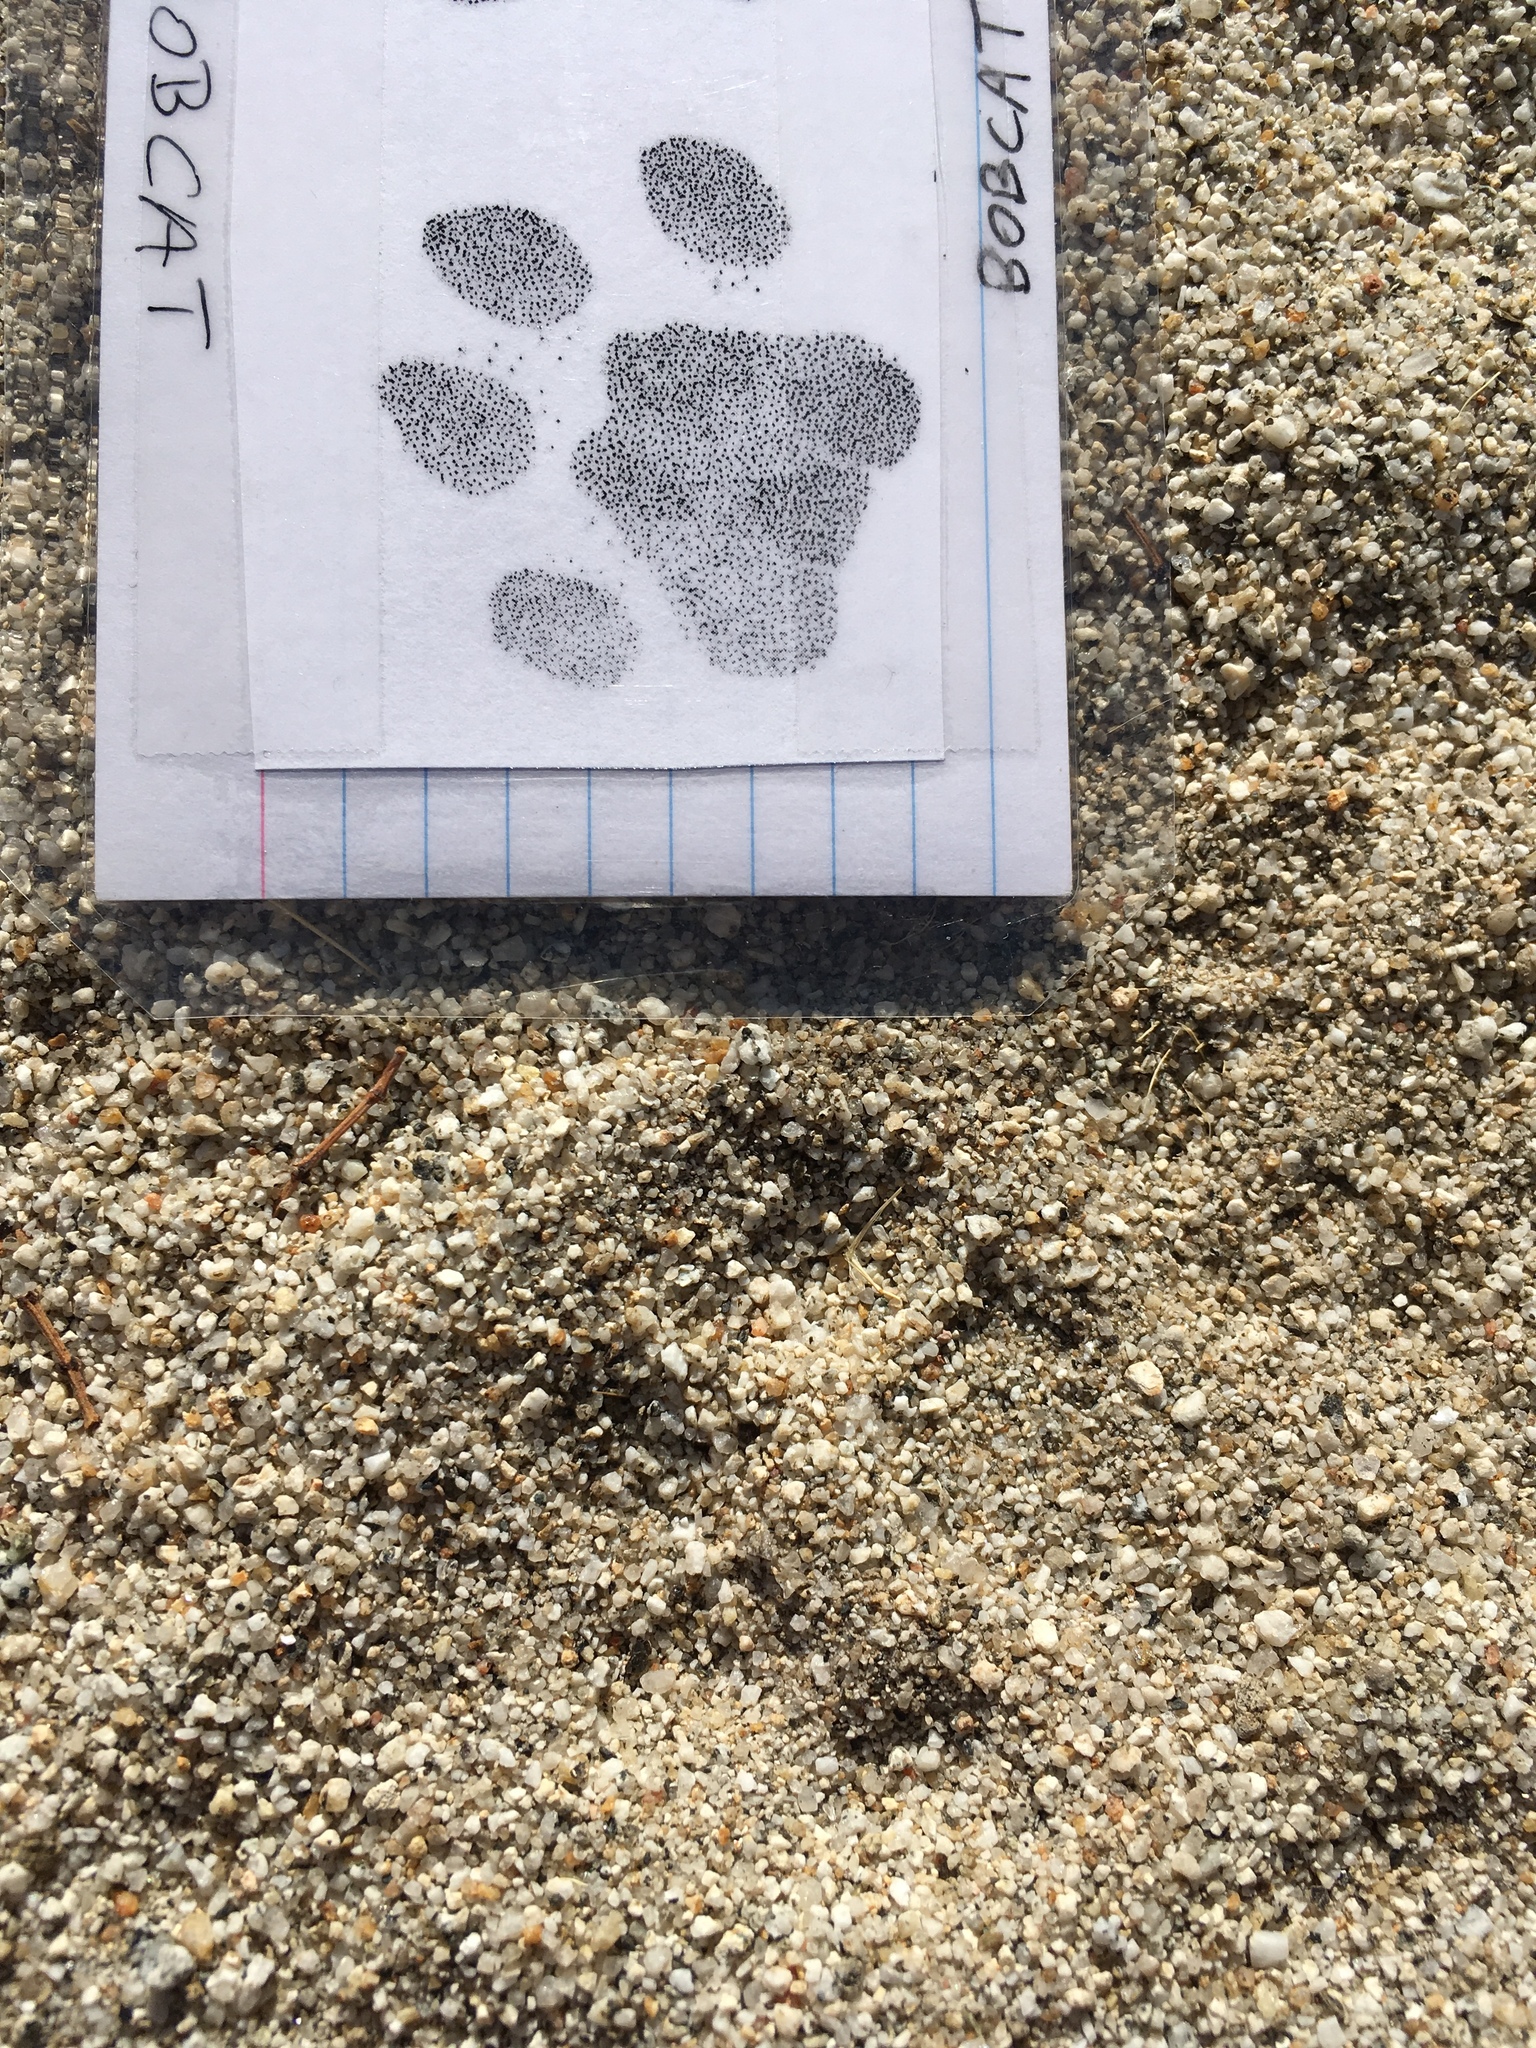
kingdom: Animalia
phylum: Chordata
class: Mammalia
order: Carnivora
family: Felidae
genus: Lynx
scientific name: Lynx rufus
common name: Bobcat
